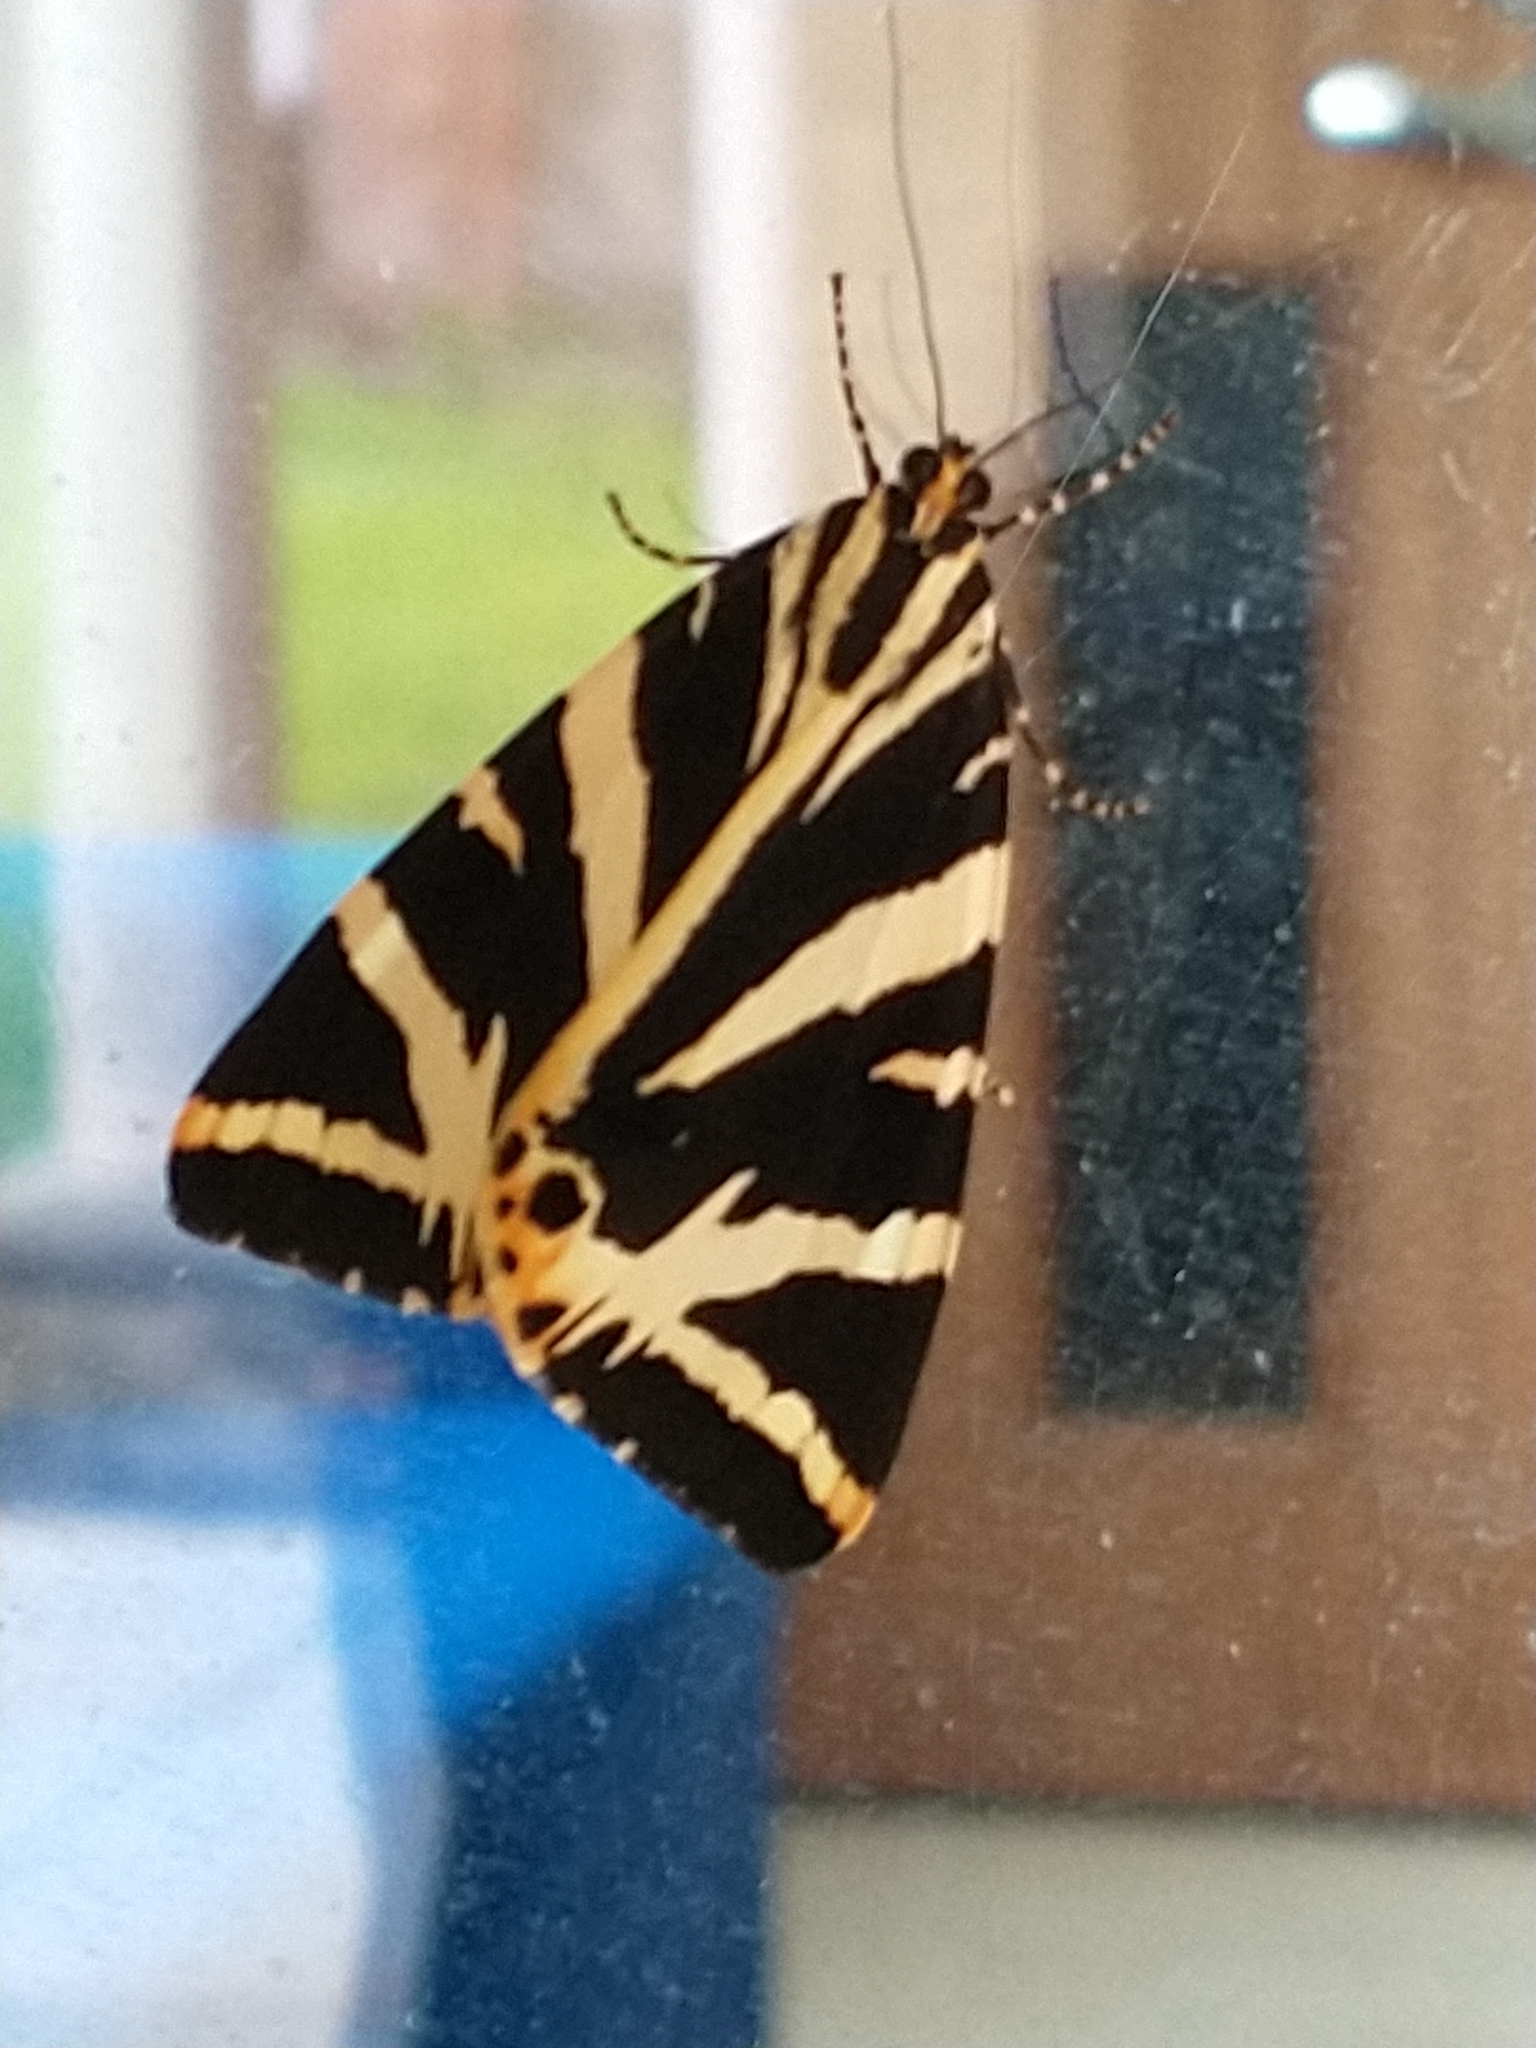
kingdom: Animalia
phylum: Arthropoda
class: Insecta
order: Lepidoptera
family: Erebidae
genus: Euplagia
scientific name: Euplagia quadripunctaria
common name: Jersey tiger
